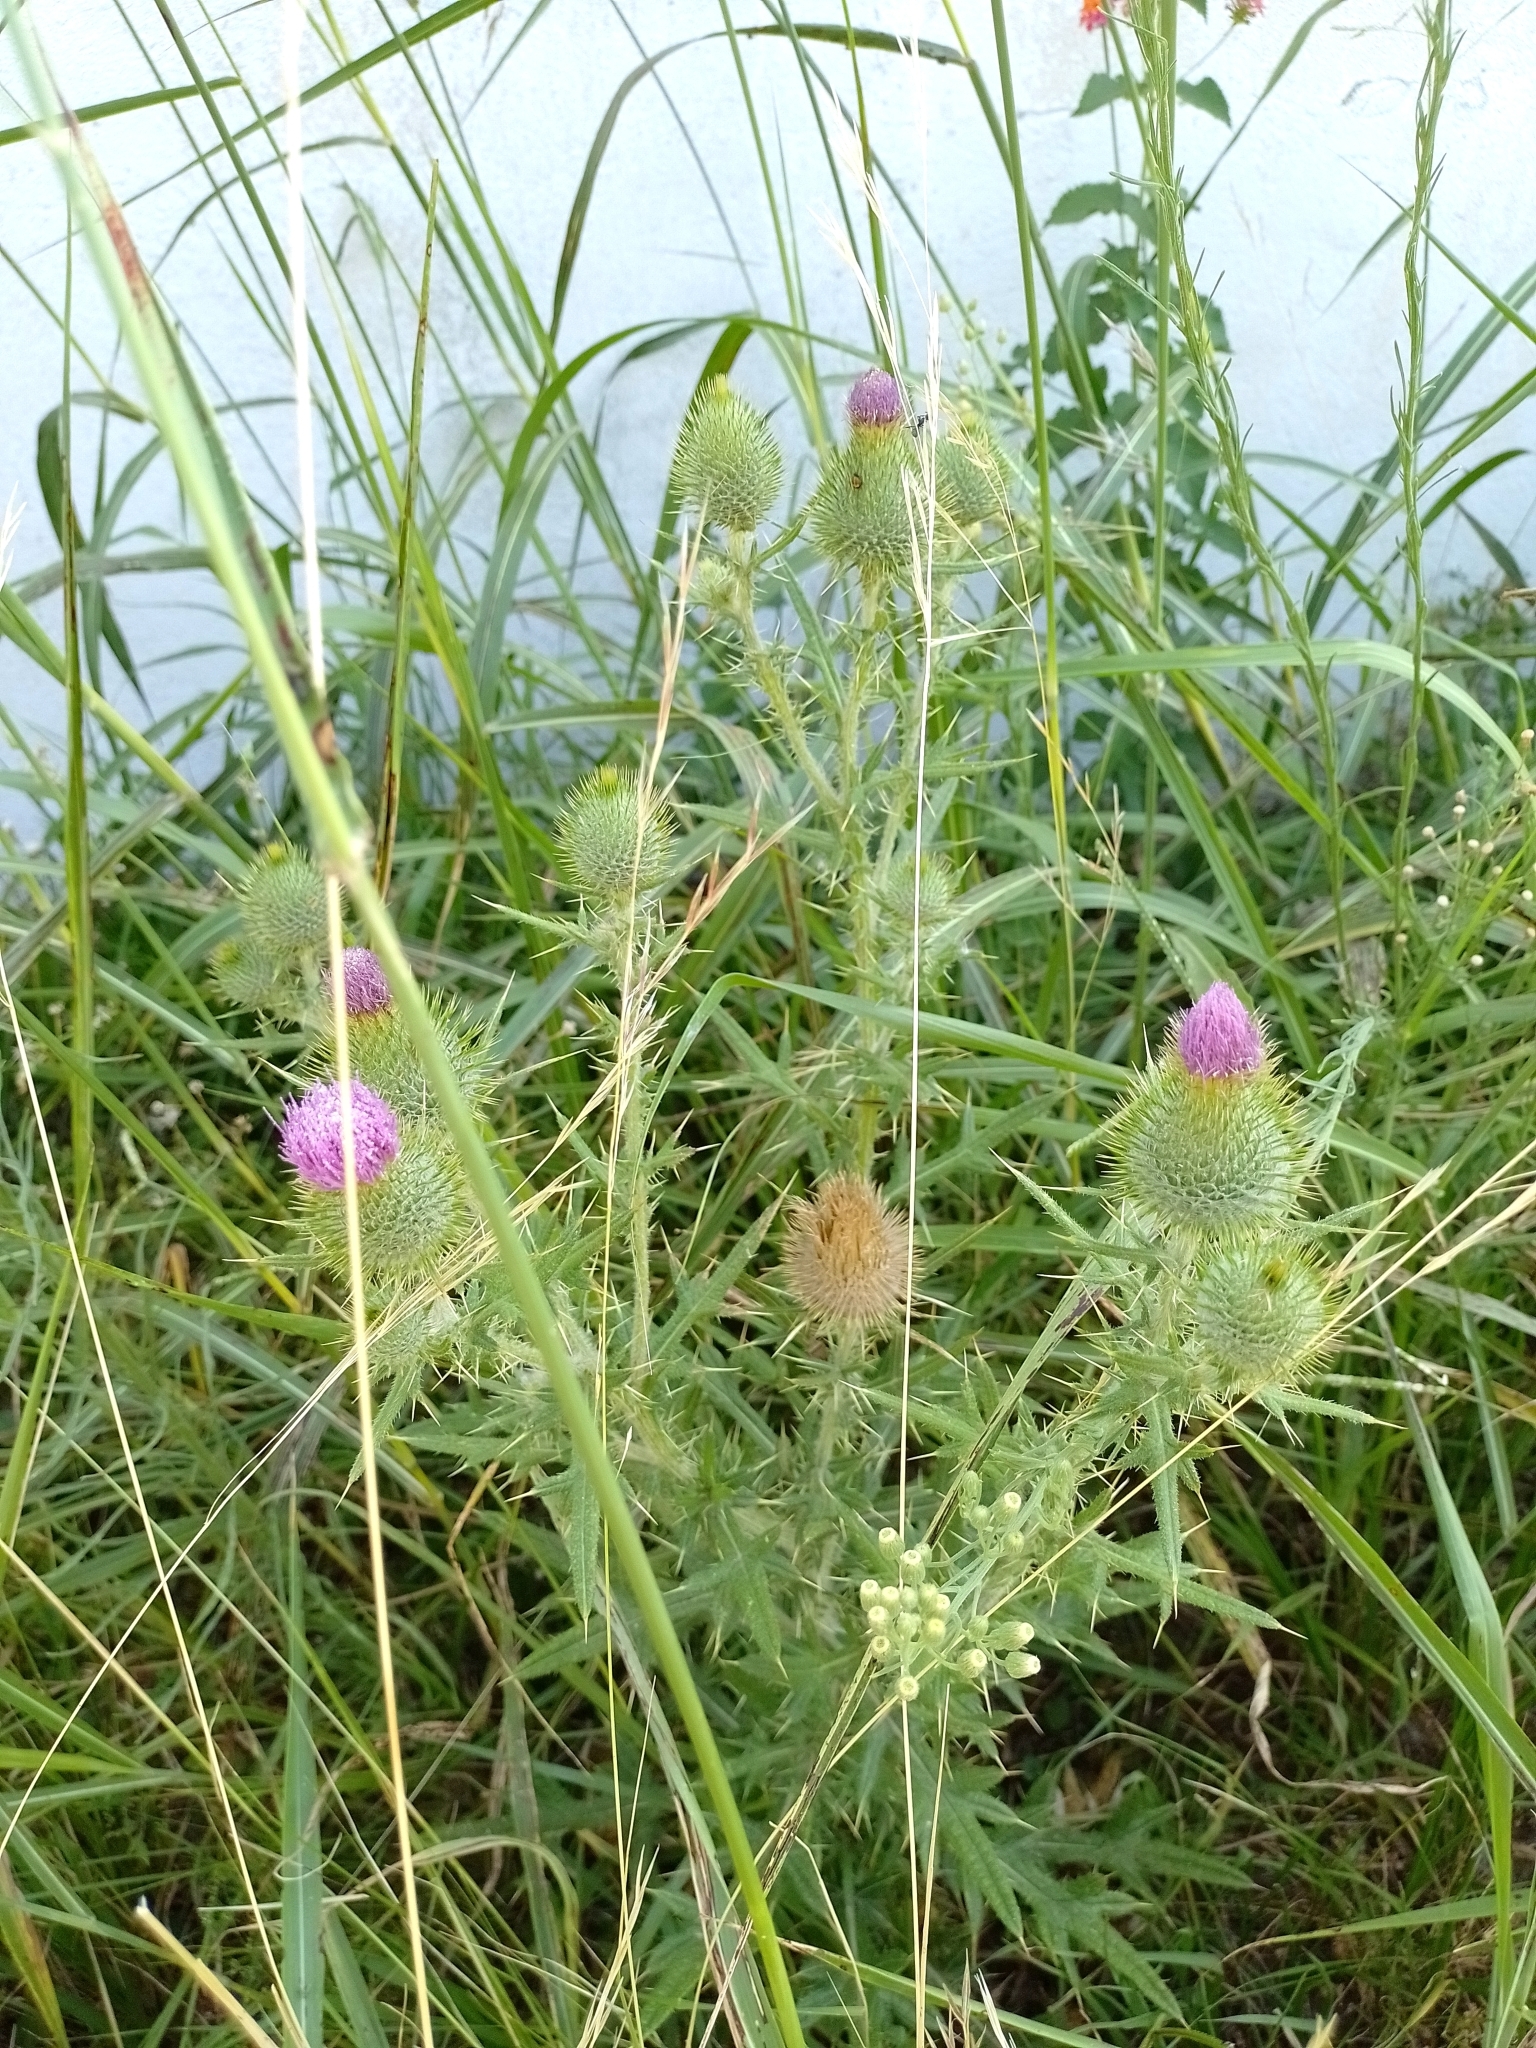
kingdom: Plantae
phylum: Tracheophyta
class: Magnoliopsida
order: Asterales
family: Asteraceae
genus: Cirsium
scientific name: Cirsium vulgare
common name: Bull thistle
